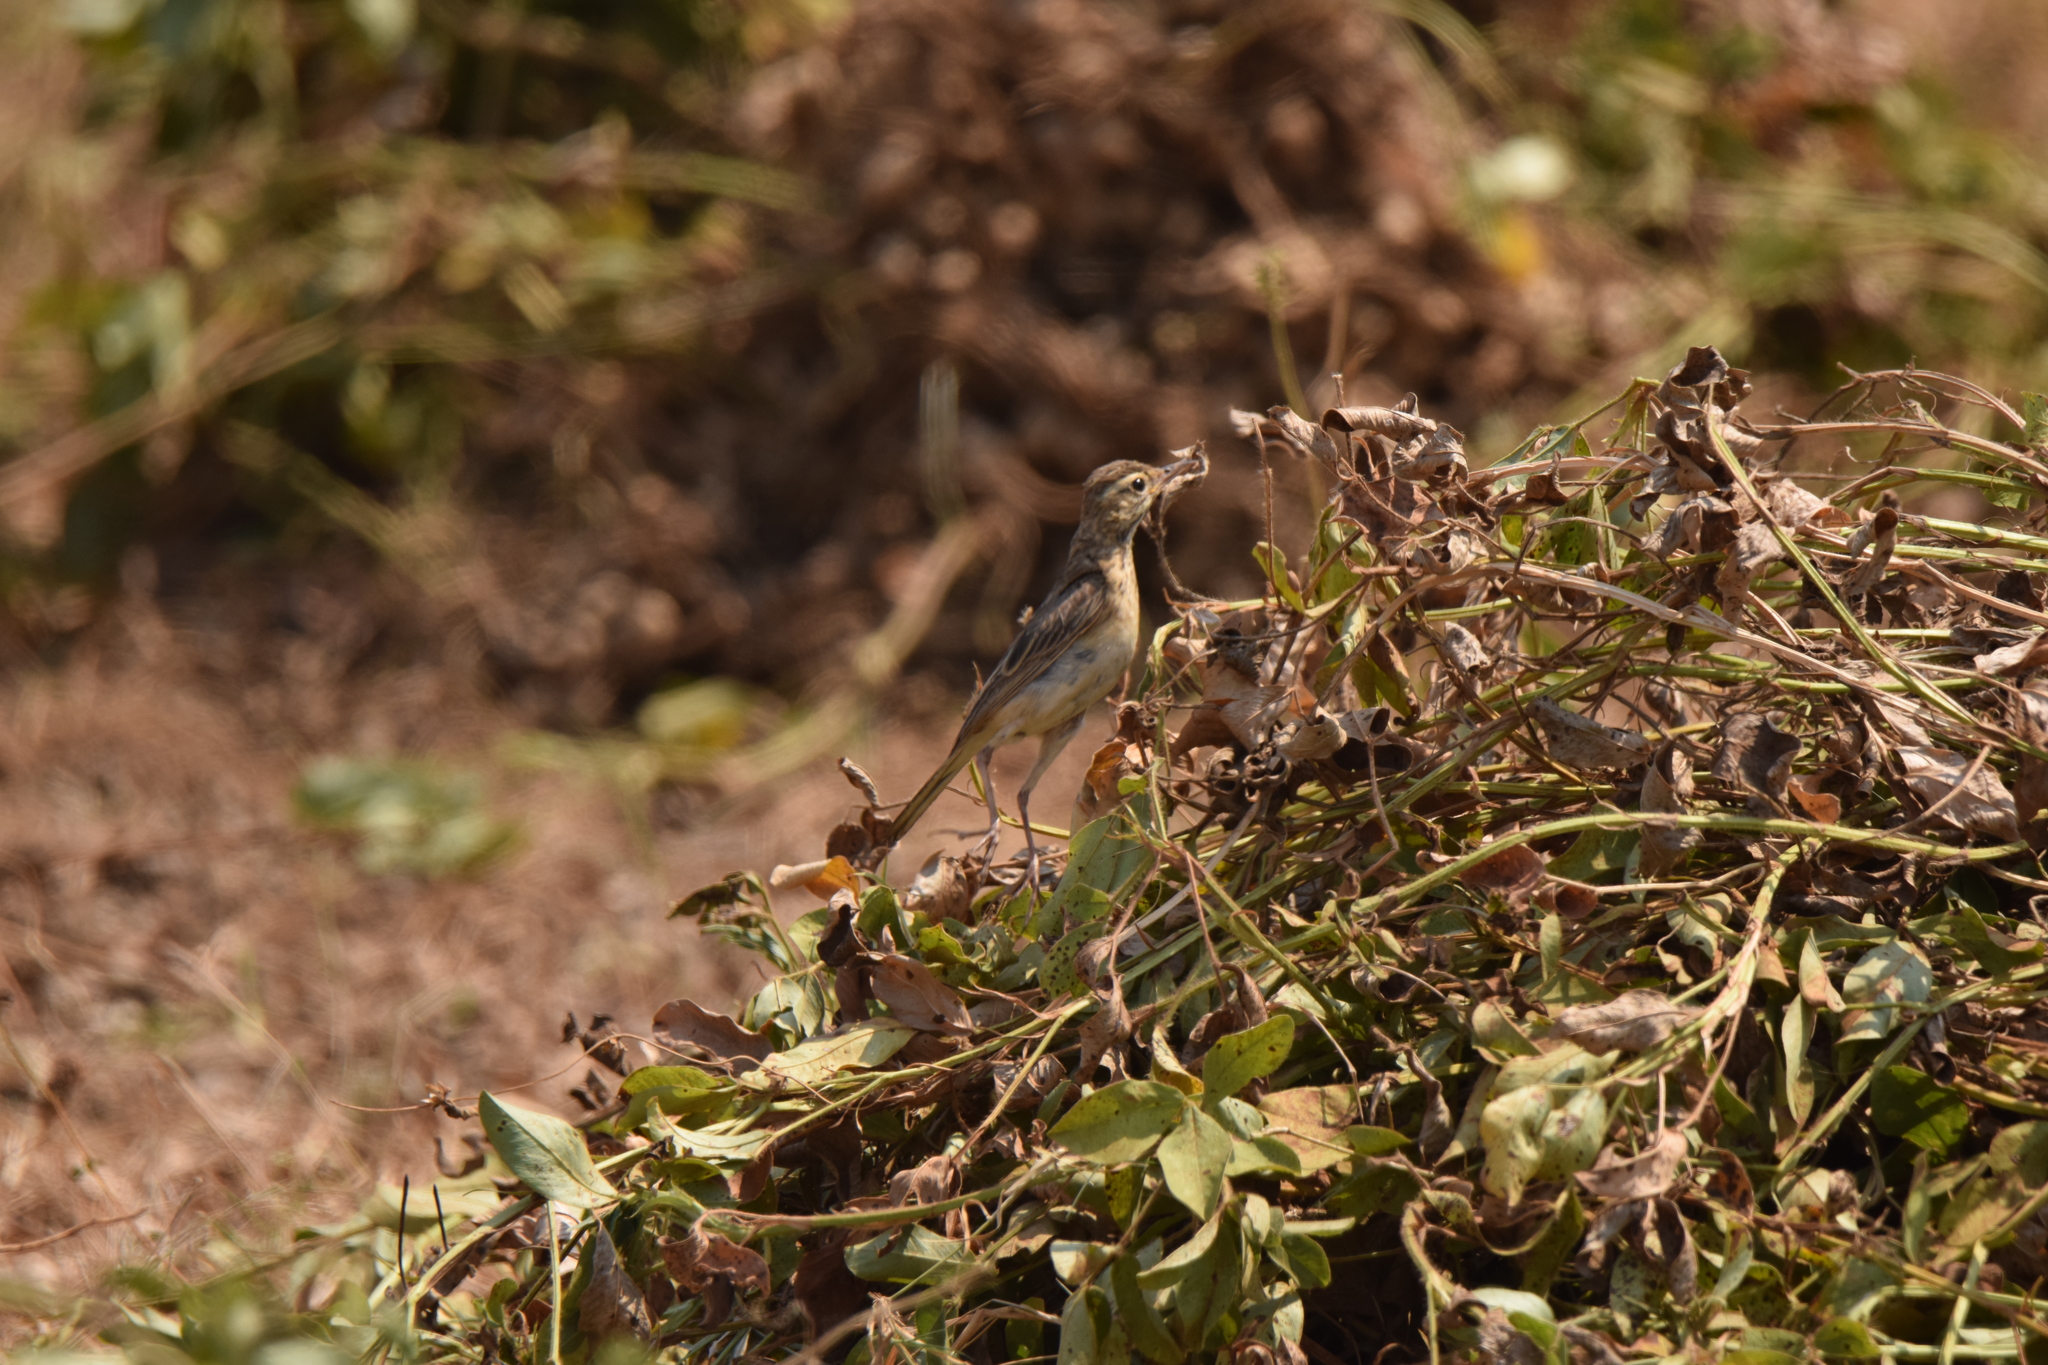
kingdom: Animalia
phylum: Chordata
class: Aves
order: Passeriformes
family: Motacillidae
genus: Anthus
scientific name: Anthus rufulus
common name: Paddyfield pipit
